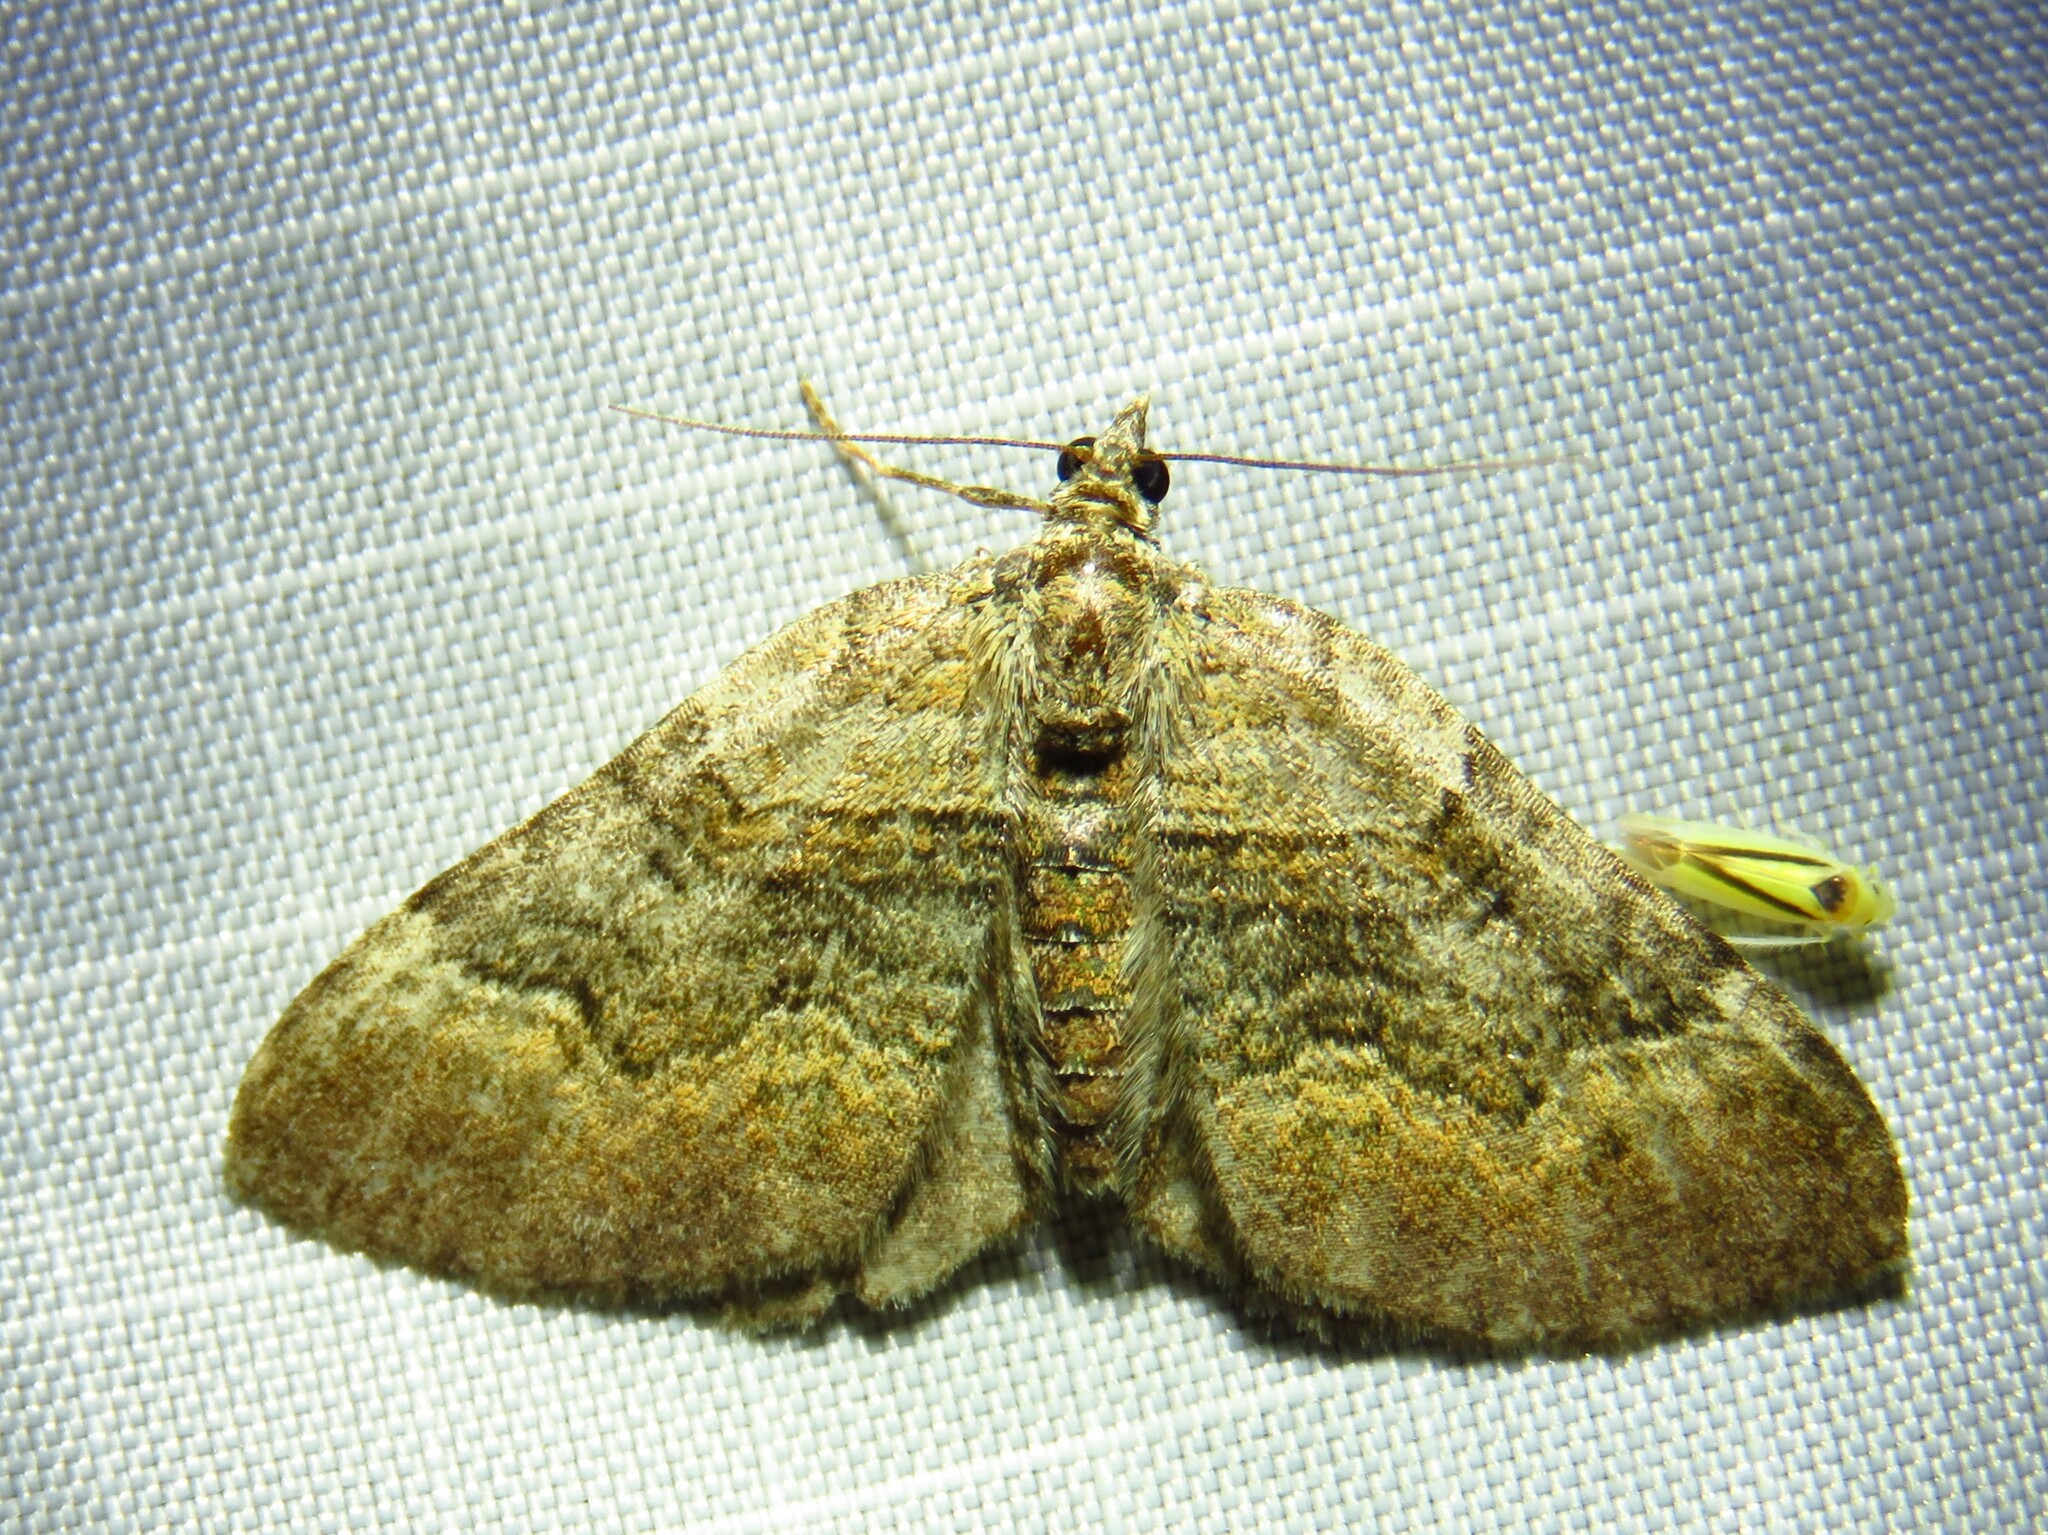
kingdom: Animalia
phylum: Arthropoda
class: Insecta
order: Lepidoptera
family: Geometridae
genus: Xanthorhoe
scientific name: Xanthorhoe quadrifasiata
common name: Large twin-spot carpet
